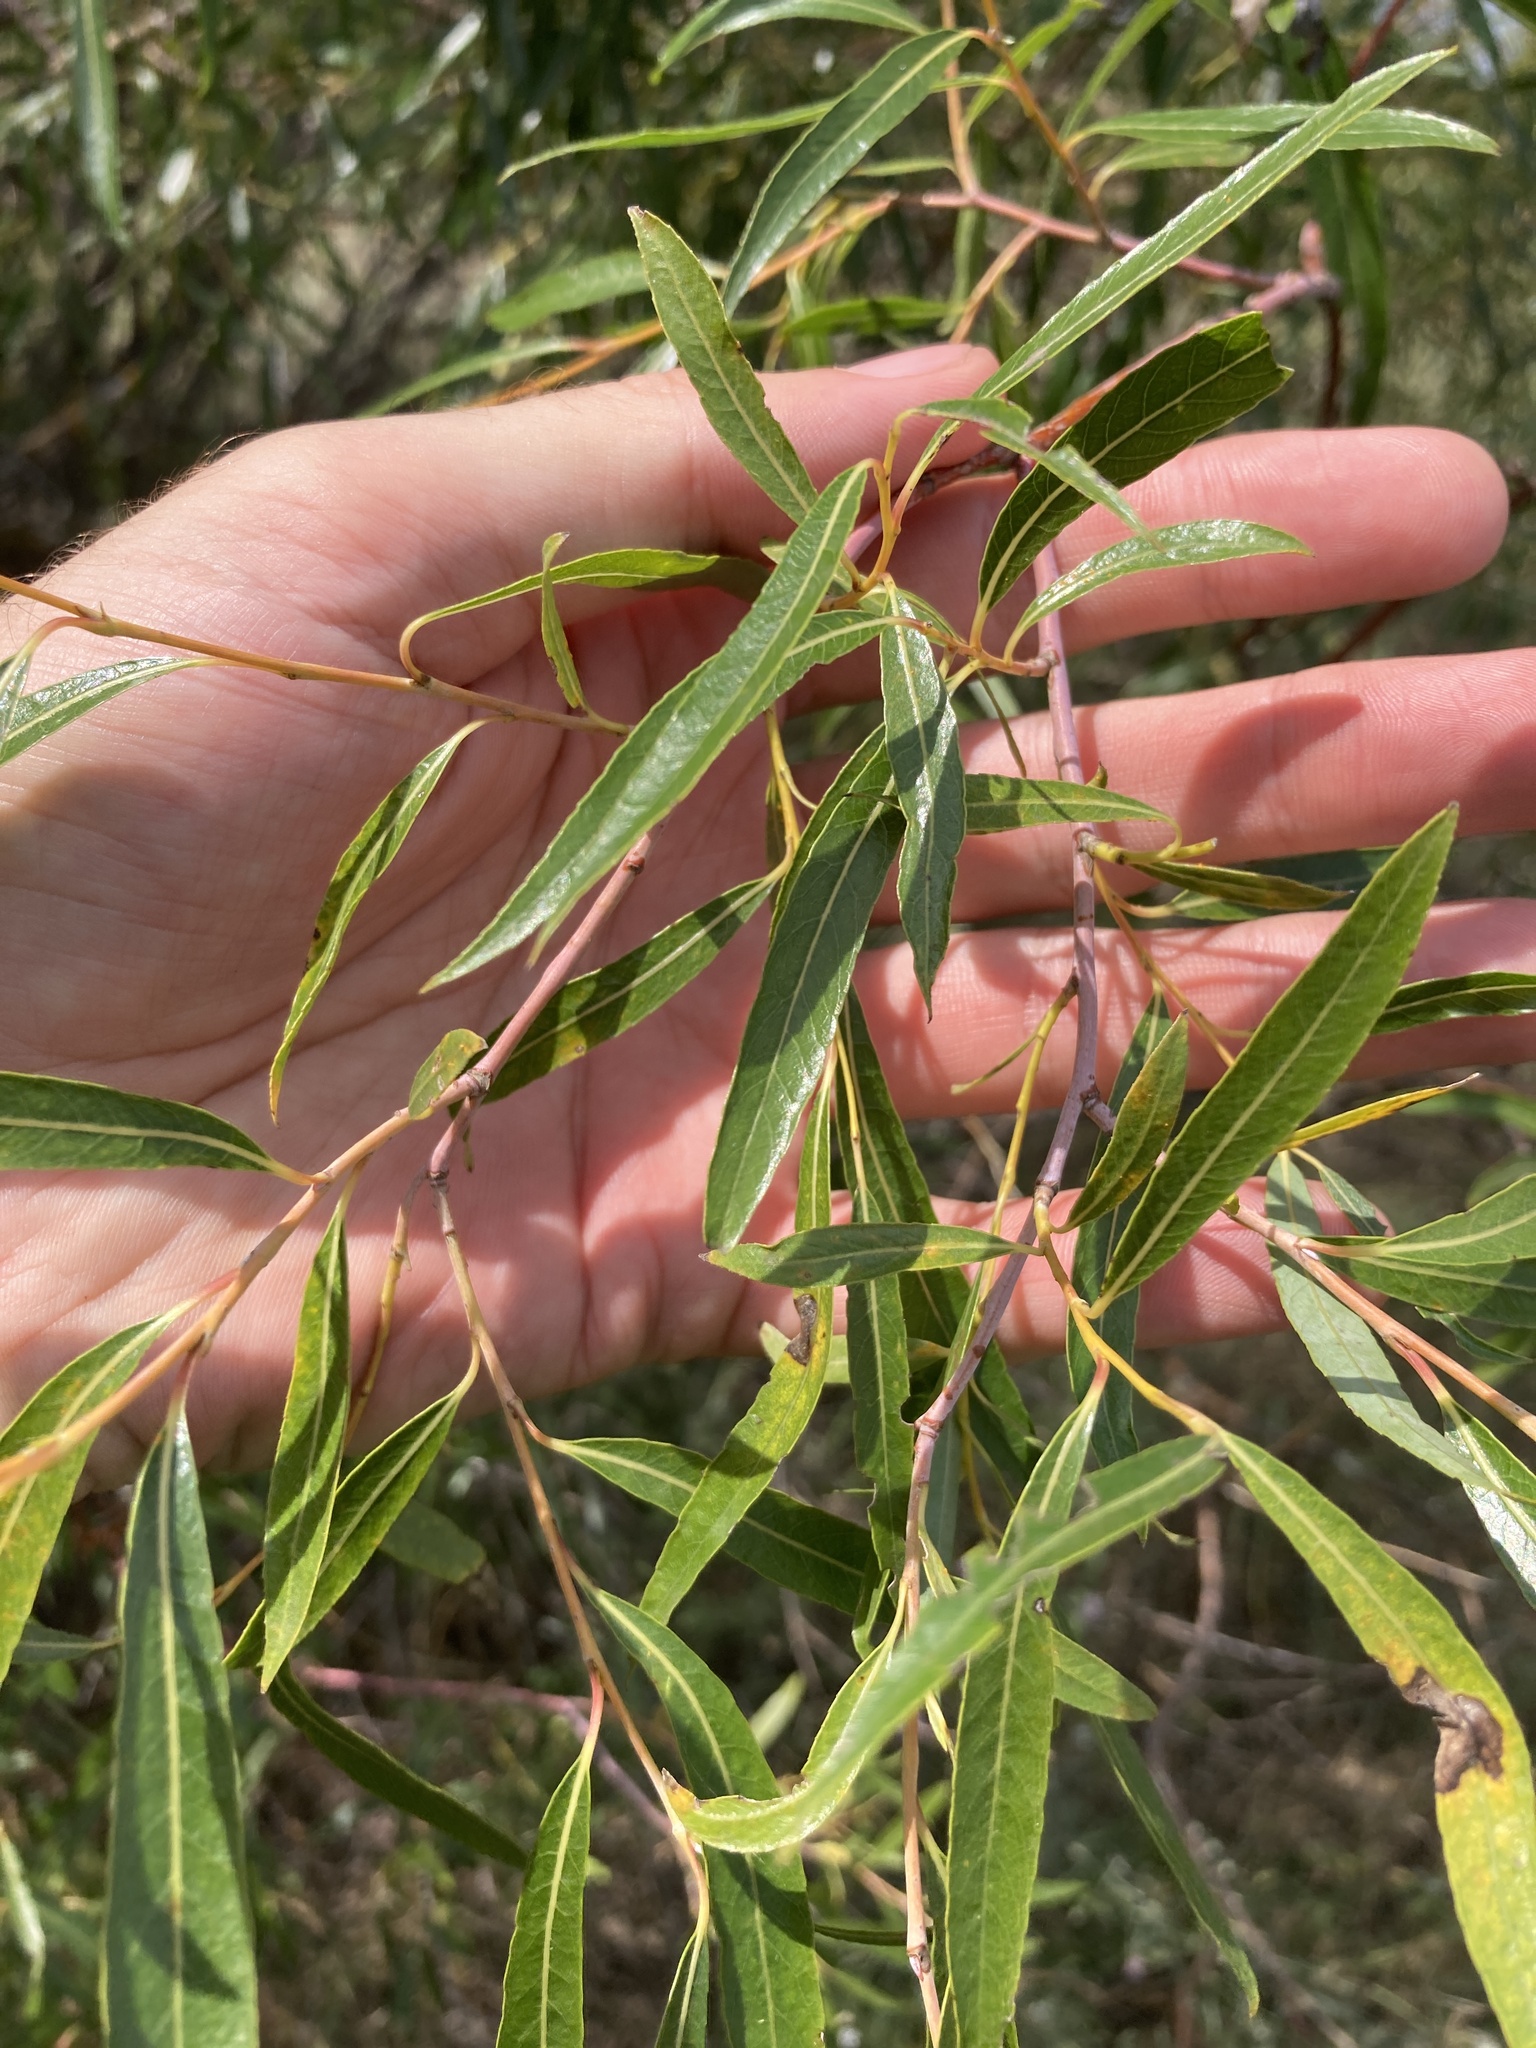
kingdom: Plantae
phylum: Tracheophyta
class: Magnoliopsida
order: Malpighiales
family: Salicaceae
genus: Salix
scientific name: Salix acutifolia
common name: Siberian violet-willow
